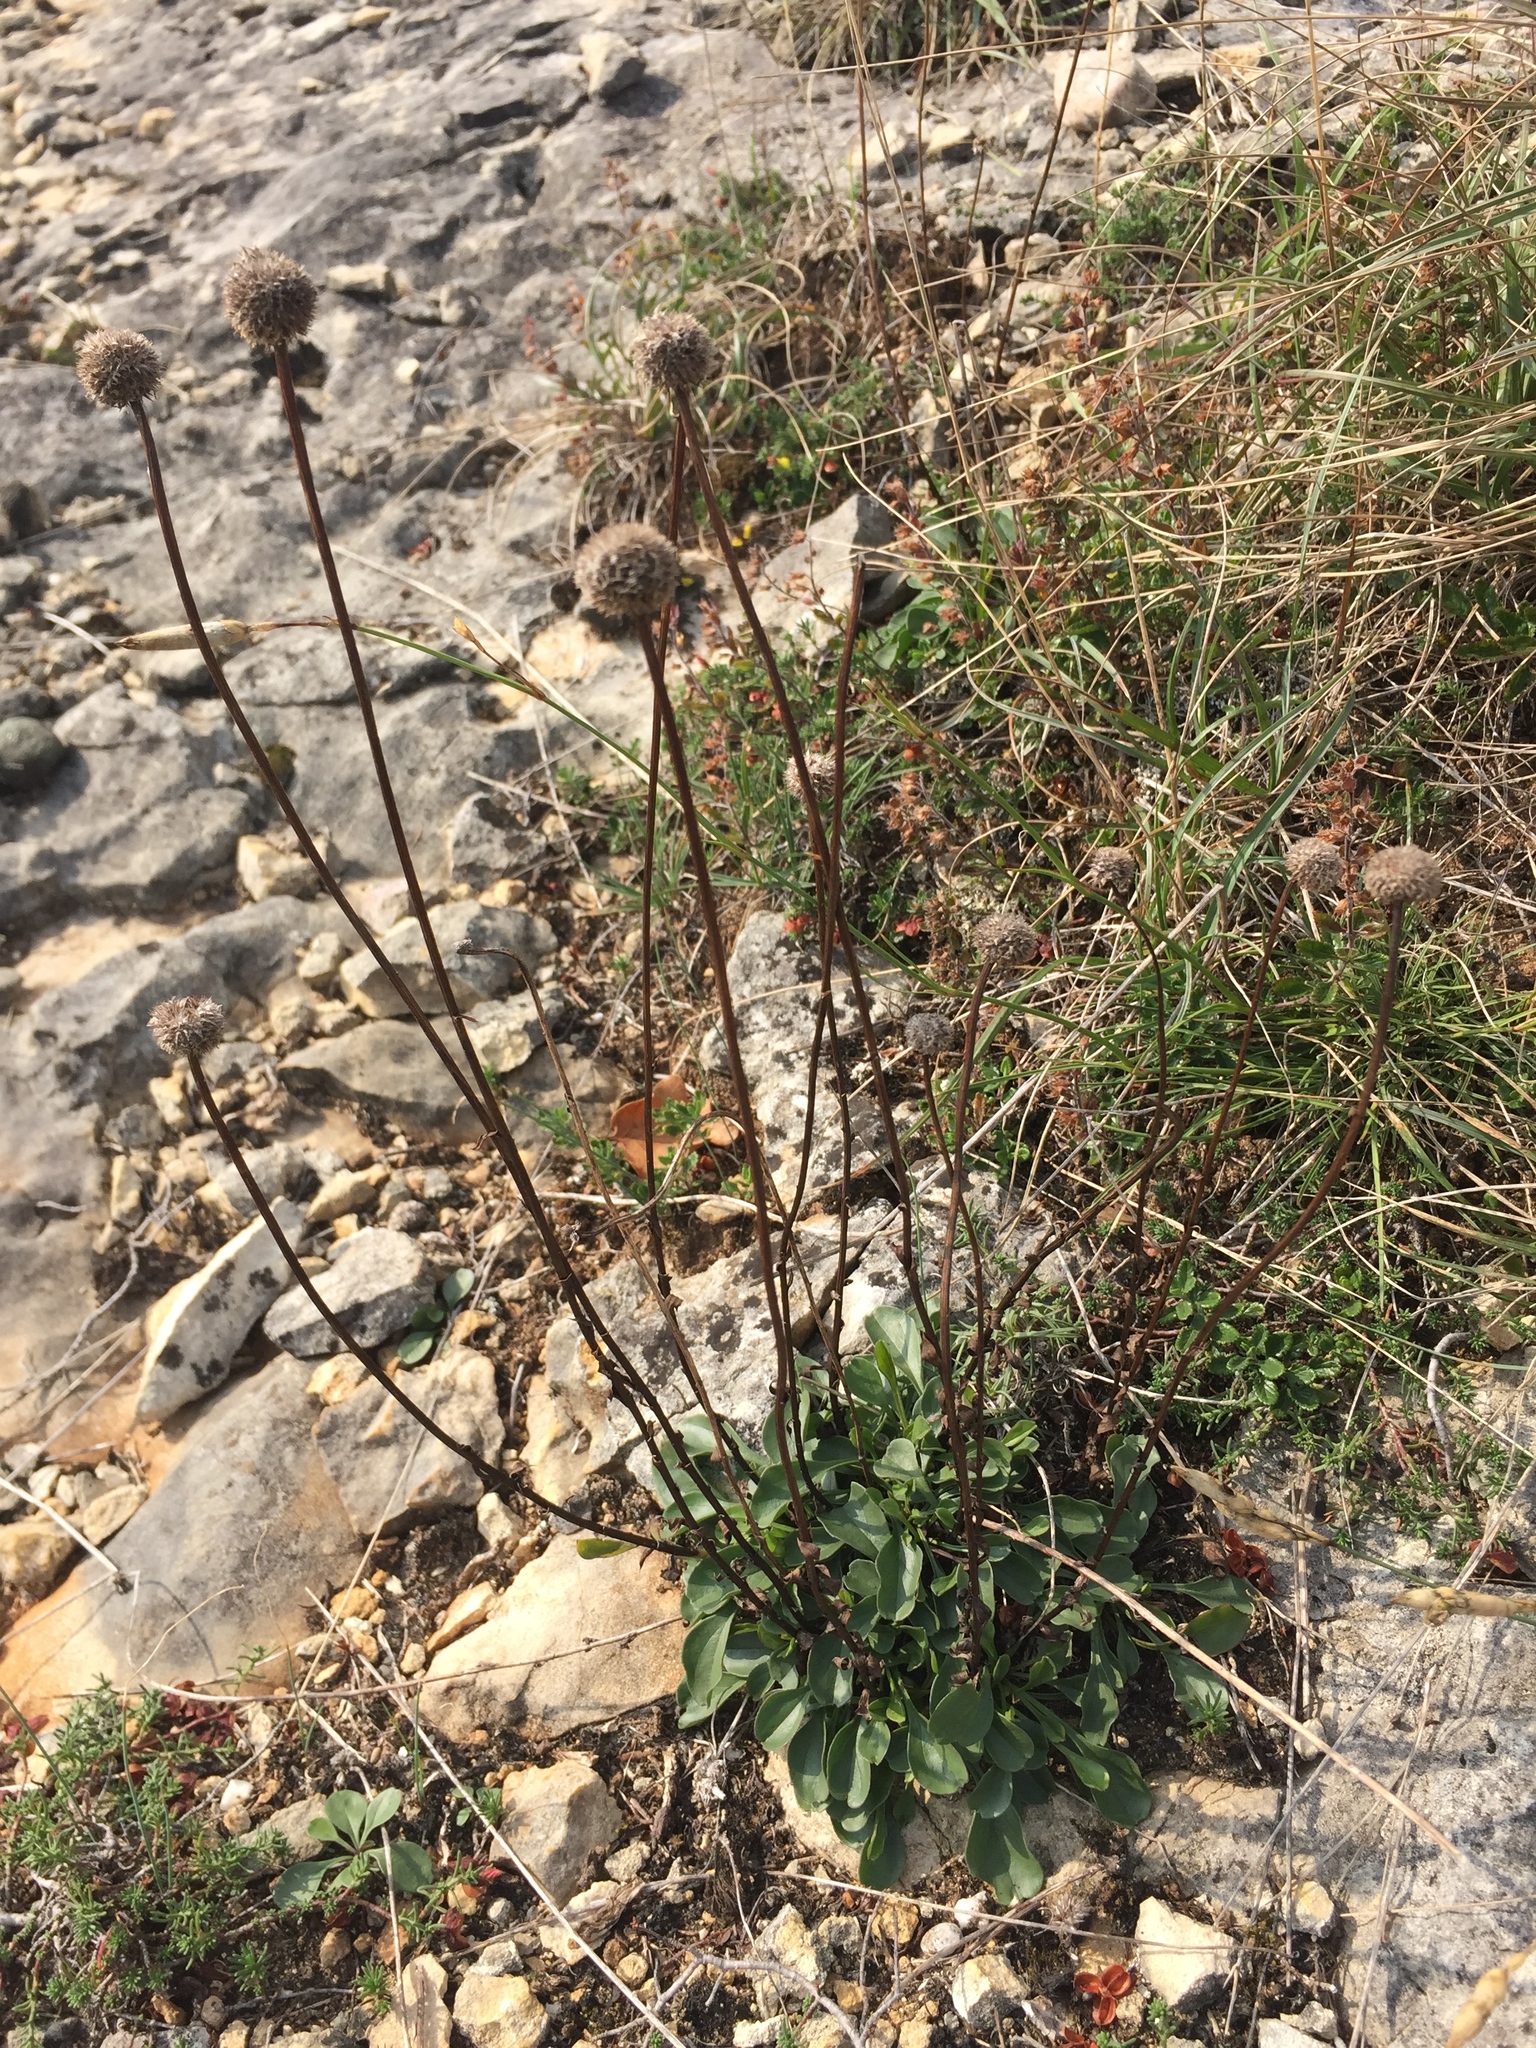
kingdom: Plantae
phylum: Tracheophyta
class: Magnoliopsida
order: Lamiales
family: Plantaginaceae
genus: Globularia
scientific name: Globularia bisnagarica
